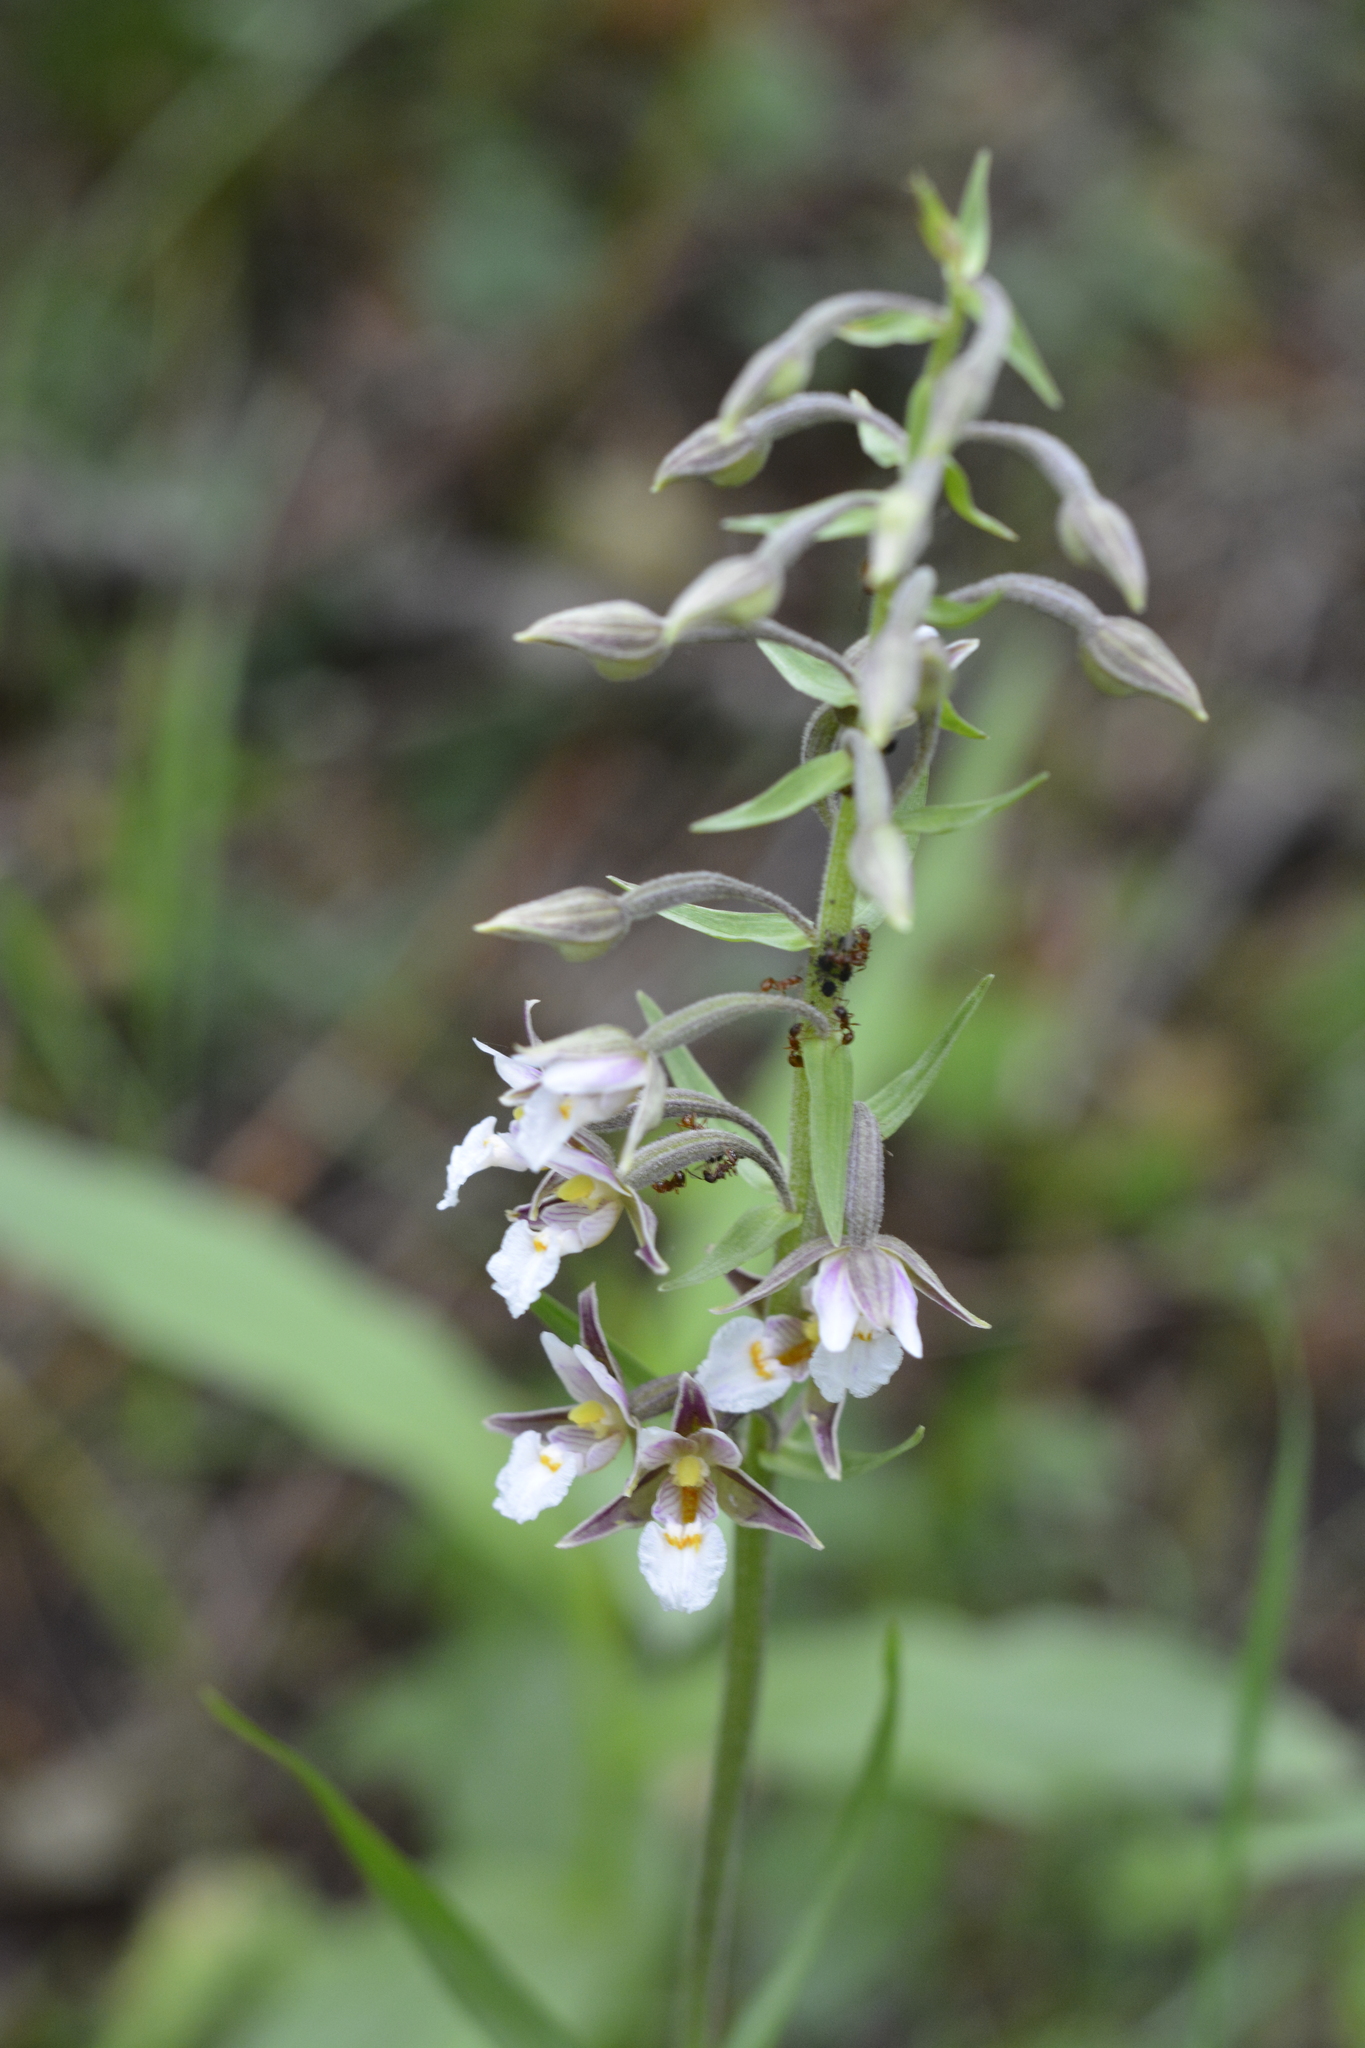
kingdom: Plantae
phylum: Tracheophyta
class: Liliopsida
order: Asparagales
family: Orchidaceae
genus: Epipactis
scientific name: Epipactis palustris
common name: Marsh helleborine
